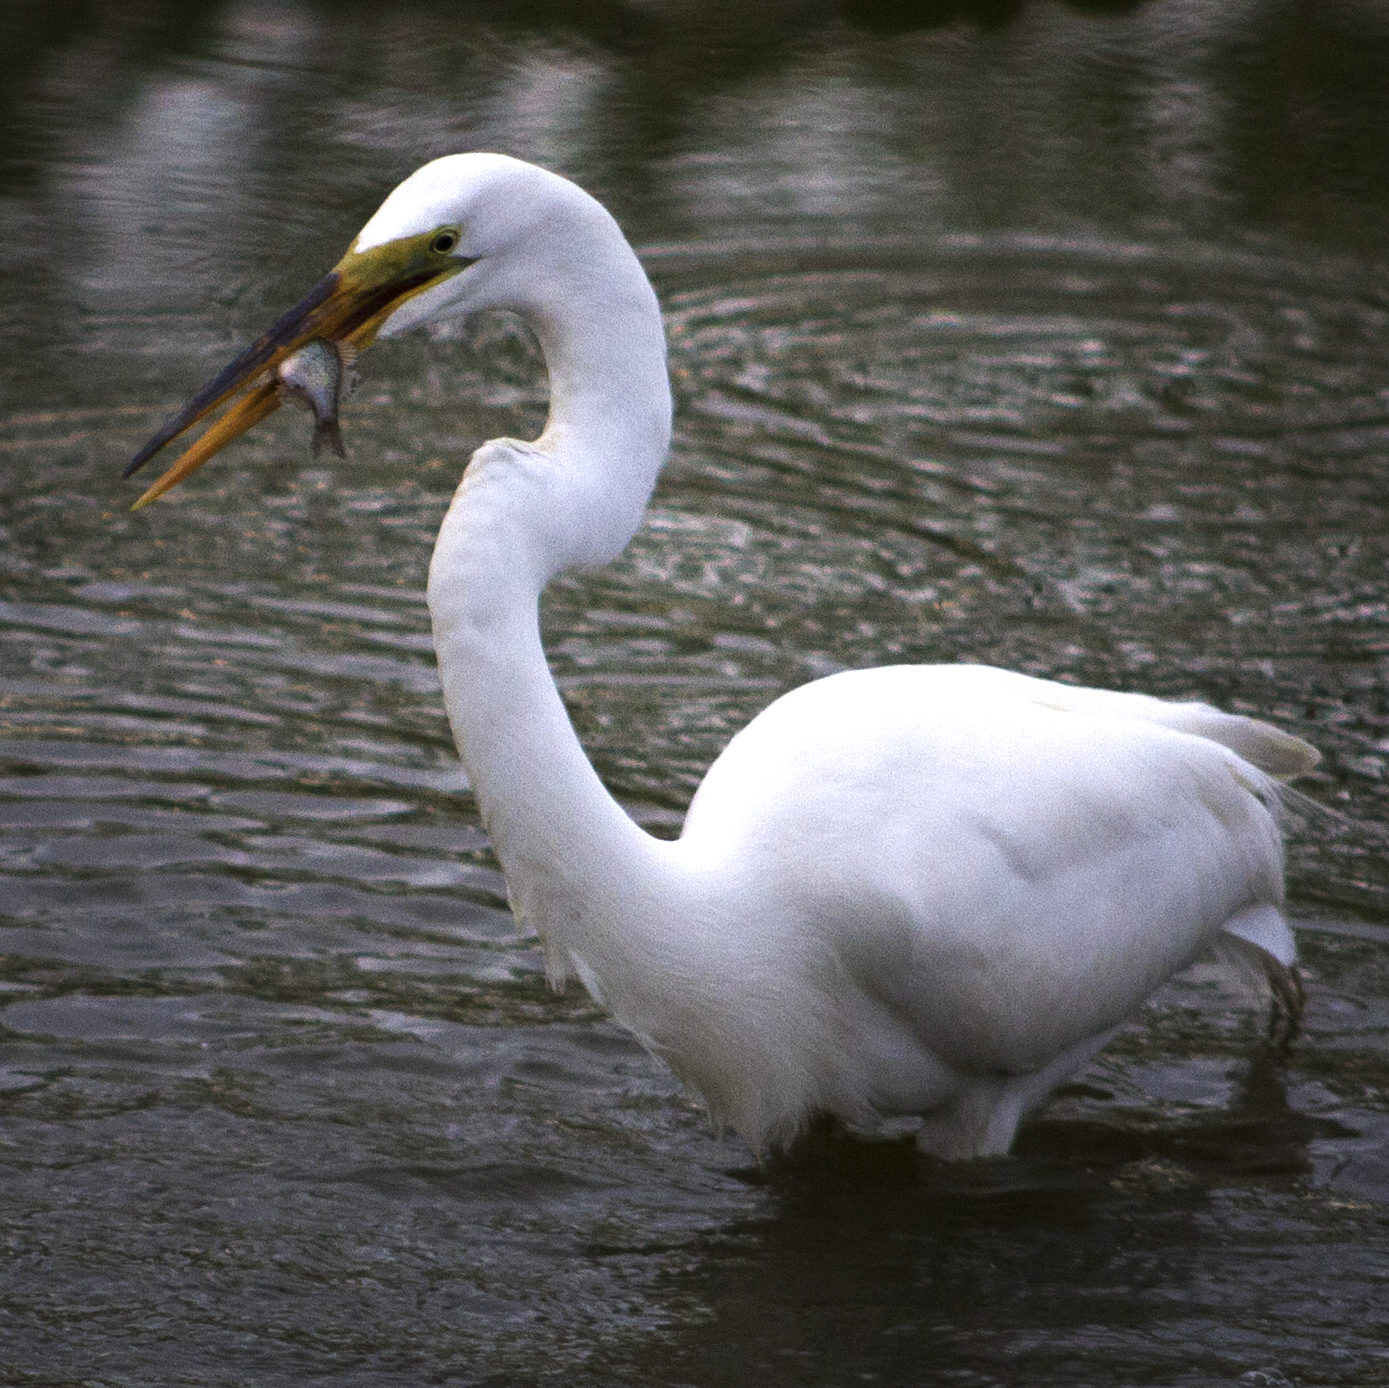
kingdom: Animalia
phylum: Chordata
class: Aves
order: Pelecaniformes
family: Ardeidae
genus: Ardea
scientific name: Ardea alba
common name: Great egret
